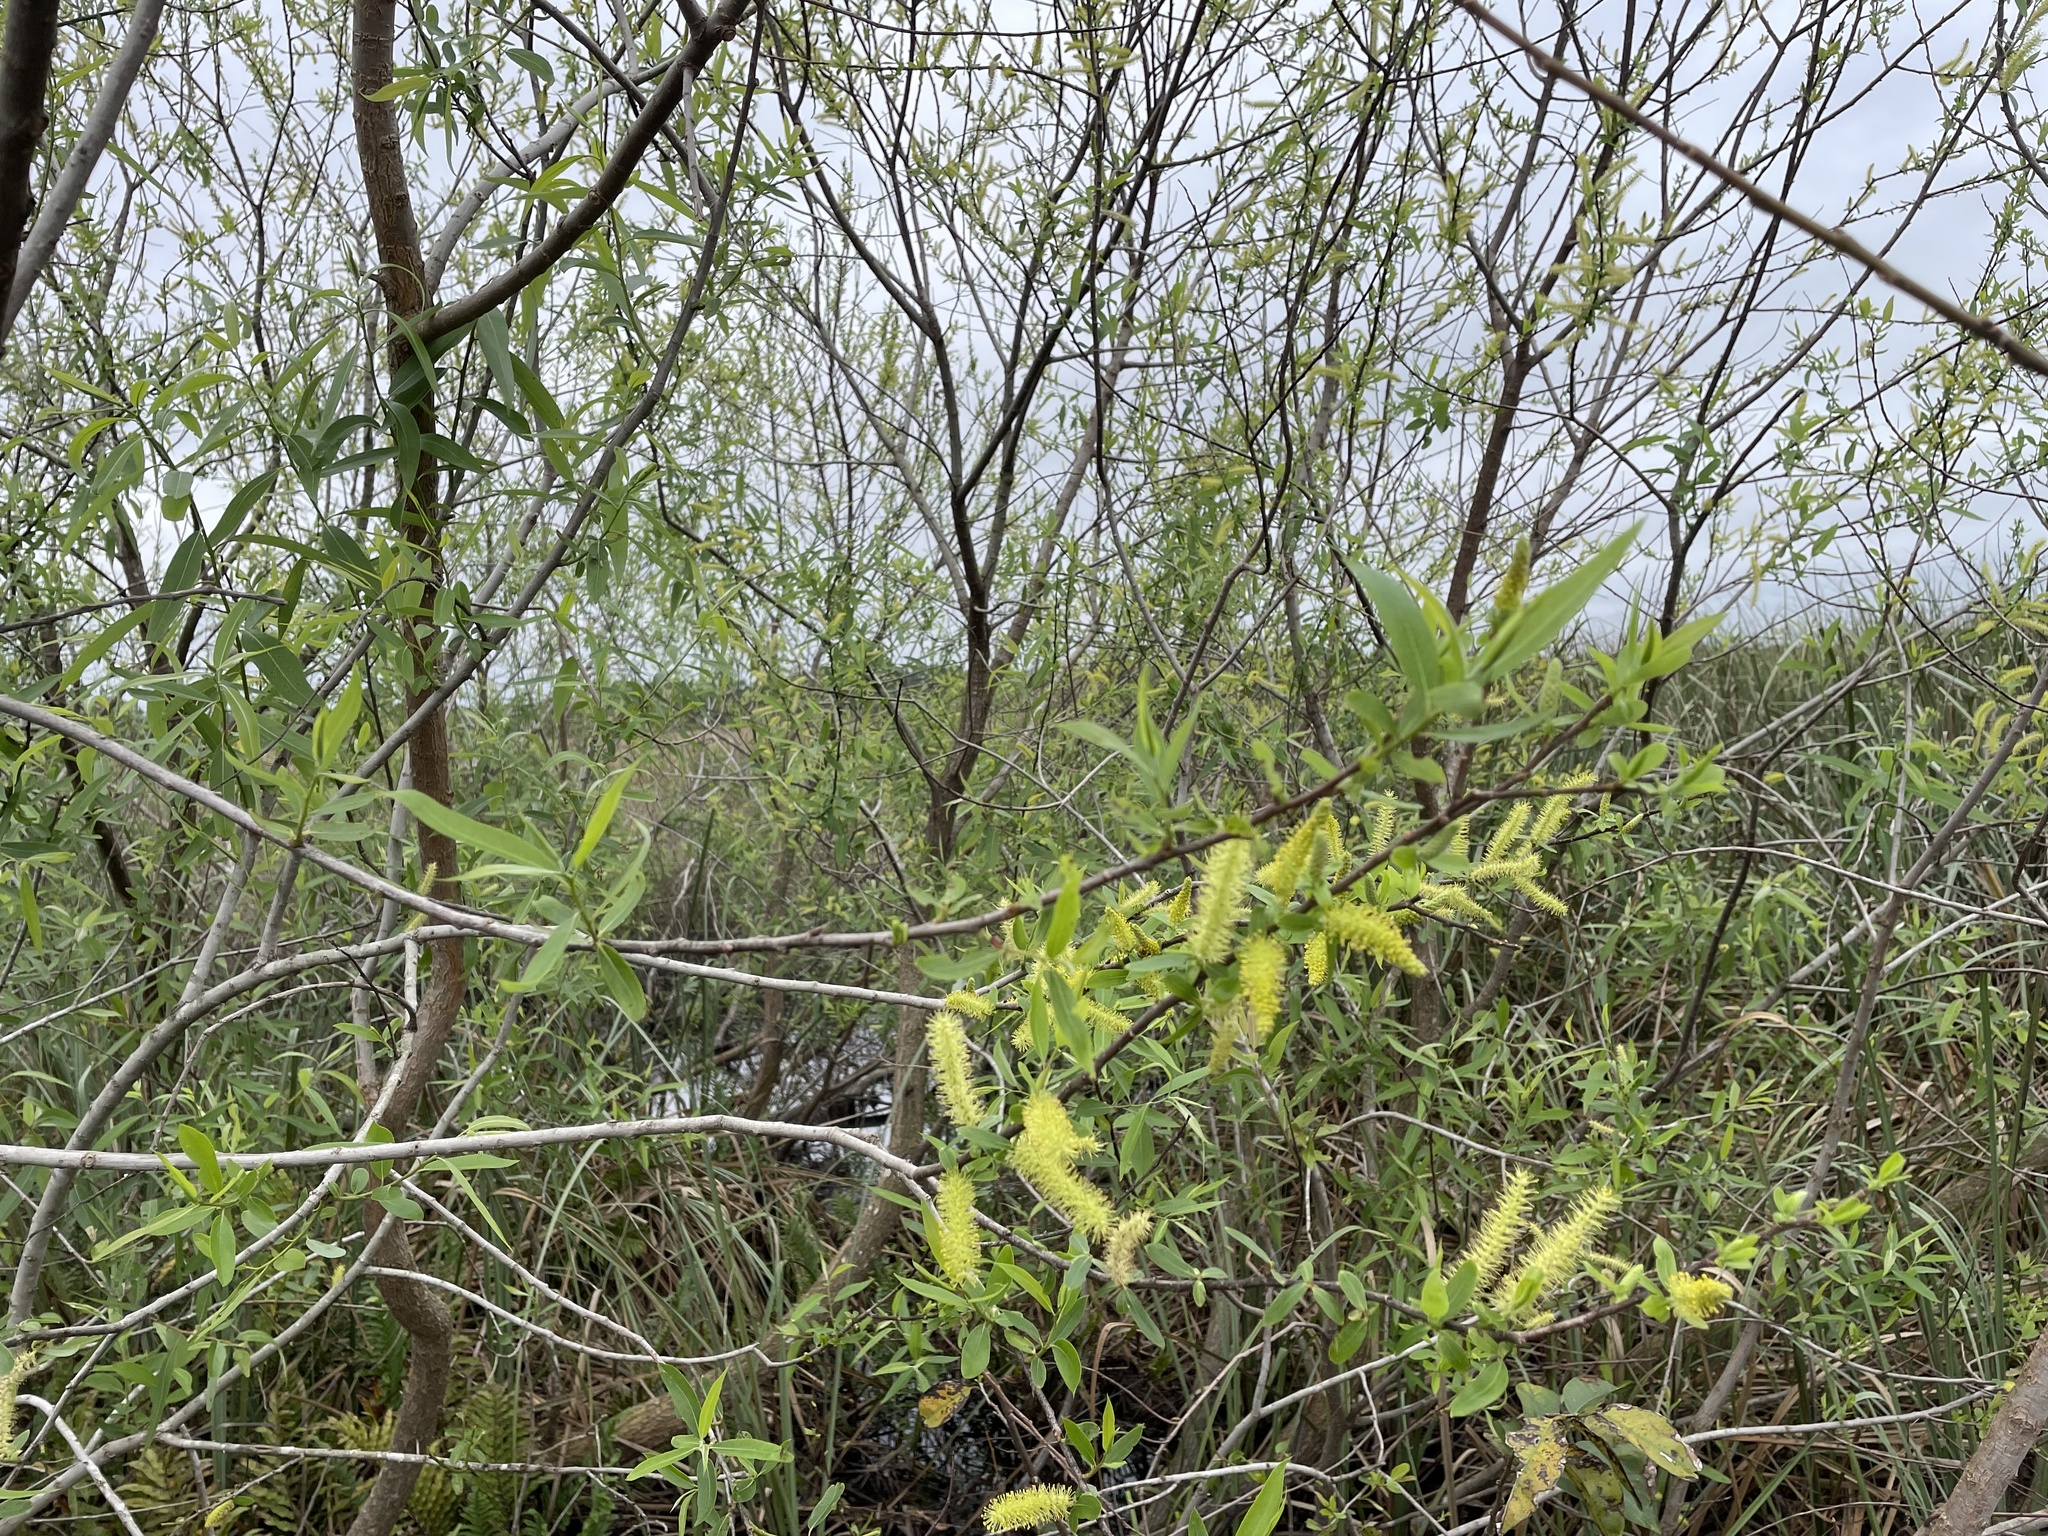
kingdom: Plantae
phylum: Tracheophyta
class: Magnoliopsida
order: Malpighiales
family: Salicaceae
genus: Salix
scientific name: Salix caroliniana
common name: Carolina willow
